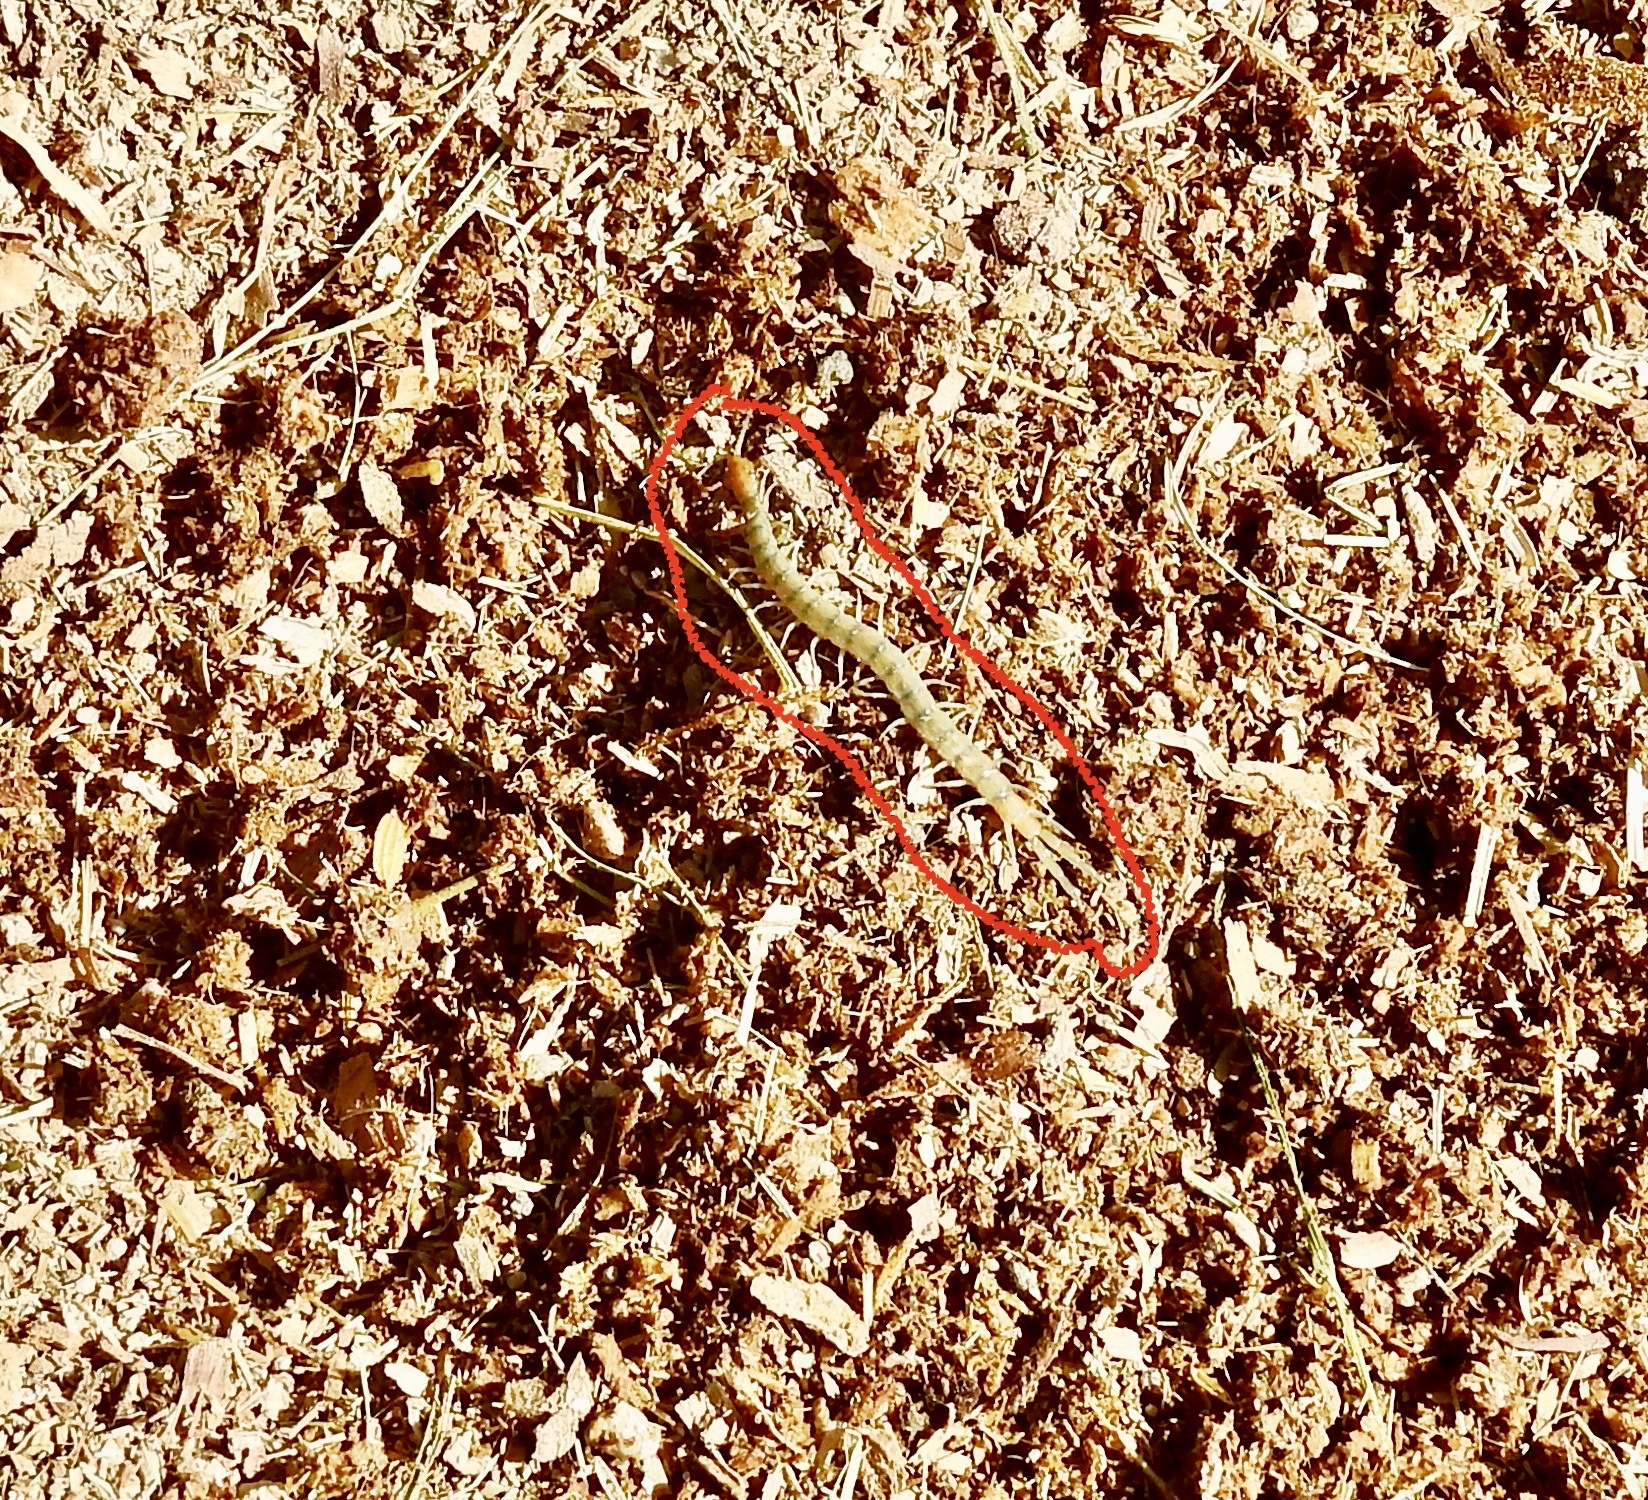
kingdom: Animalia
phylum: Arthropoda
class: Chilopoda
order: Scolopendromorpha
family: Scolopendridae
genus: Scolopendra
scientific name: Scolopendra polymorpha
